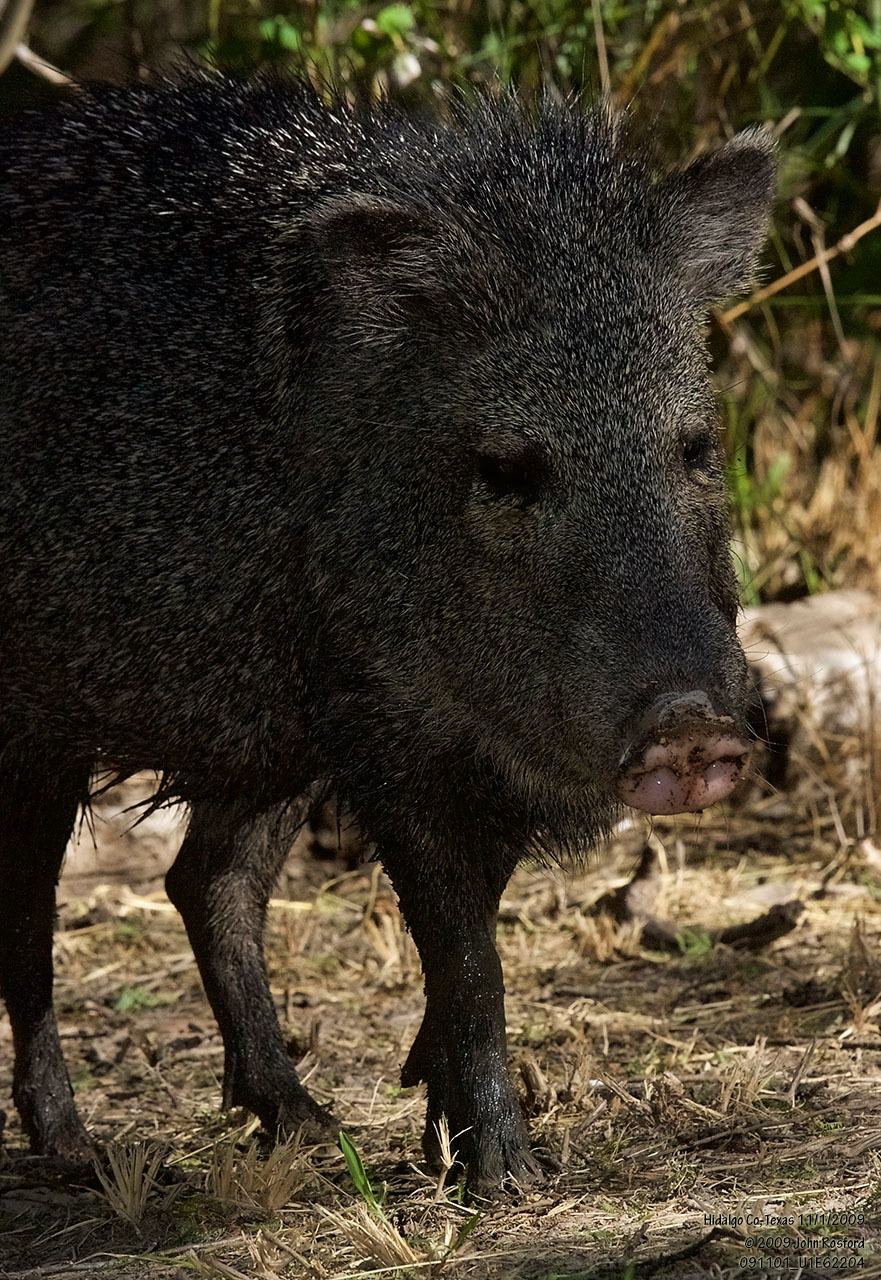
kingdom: Animalia
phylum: Chordata
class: Mammalia
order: Artiodactyla
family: Tayassuidae
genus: Pecari
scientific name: Pecari tajacu
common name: Collared peccary
